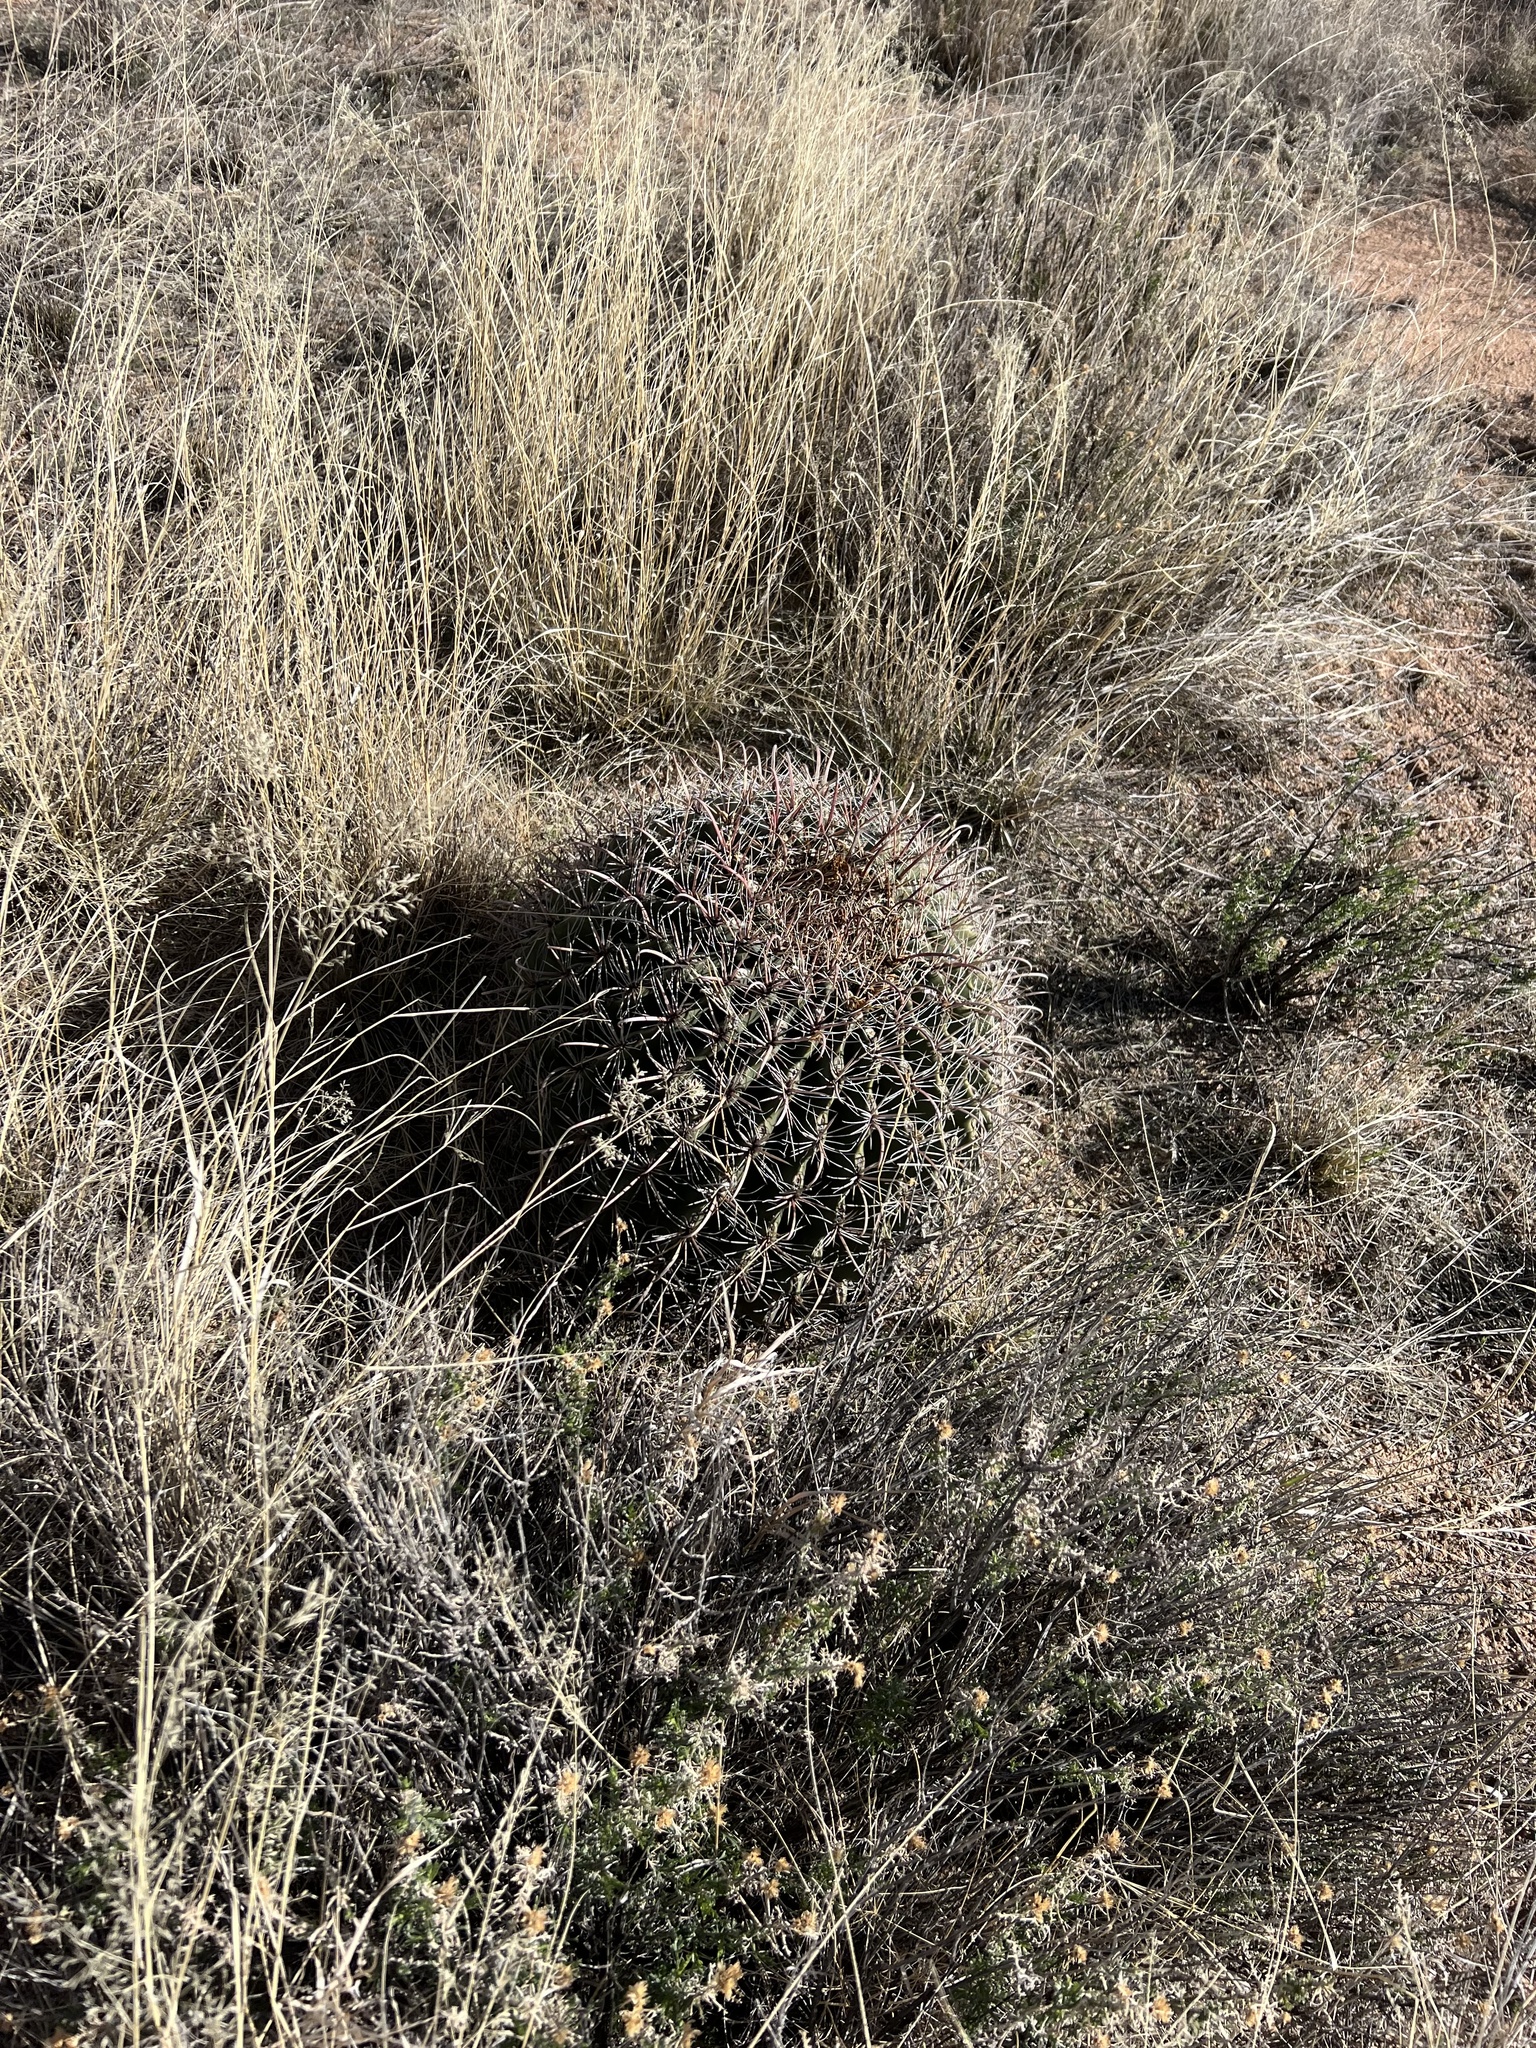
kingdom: Plantae
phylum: Tracheophyta
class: Magnoliopsida
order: Caryophyllales
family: Cactaceae
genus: Ferocactus
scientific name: Ferocactus wislizeni
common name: Candy barrel cactus
